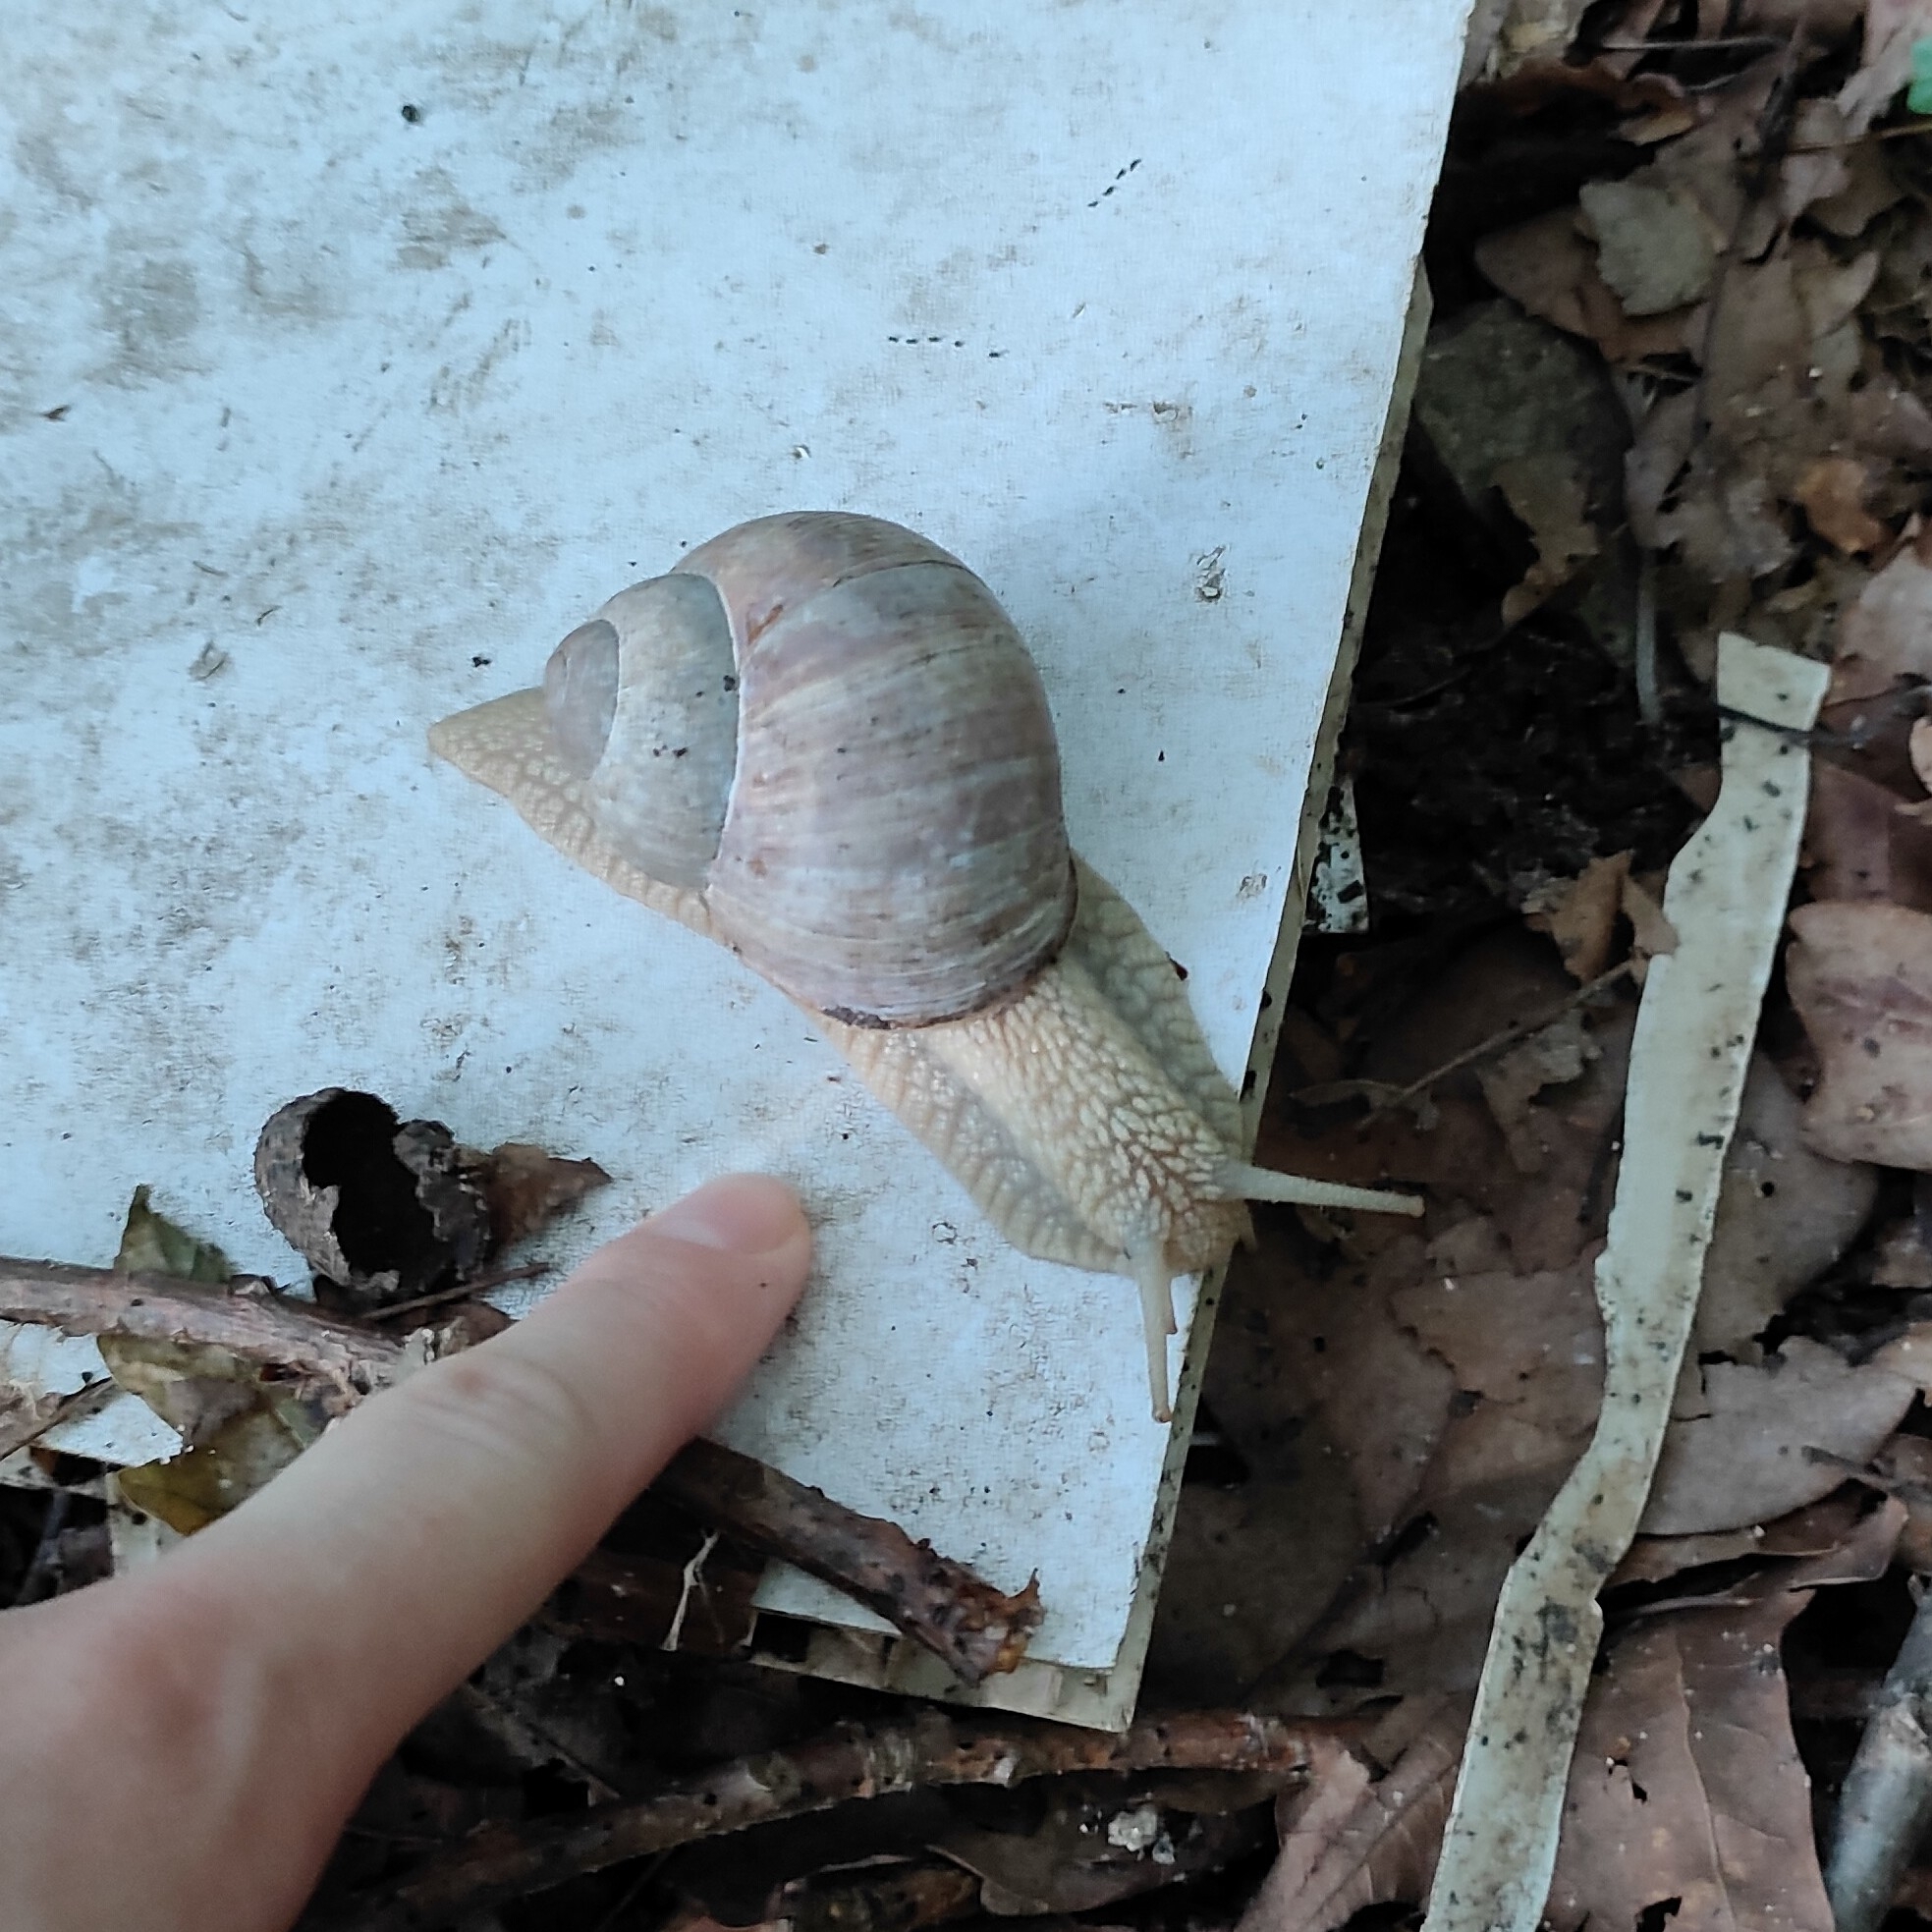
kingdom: Animalia
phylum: Mollusca
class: Gastropoda
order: Stylommatophora
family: Helicidae
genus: Helix
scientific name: Helix pomatia
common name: Roman snail
